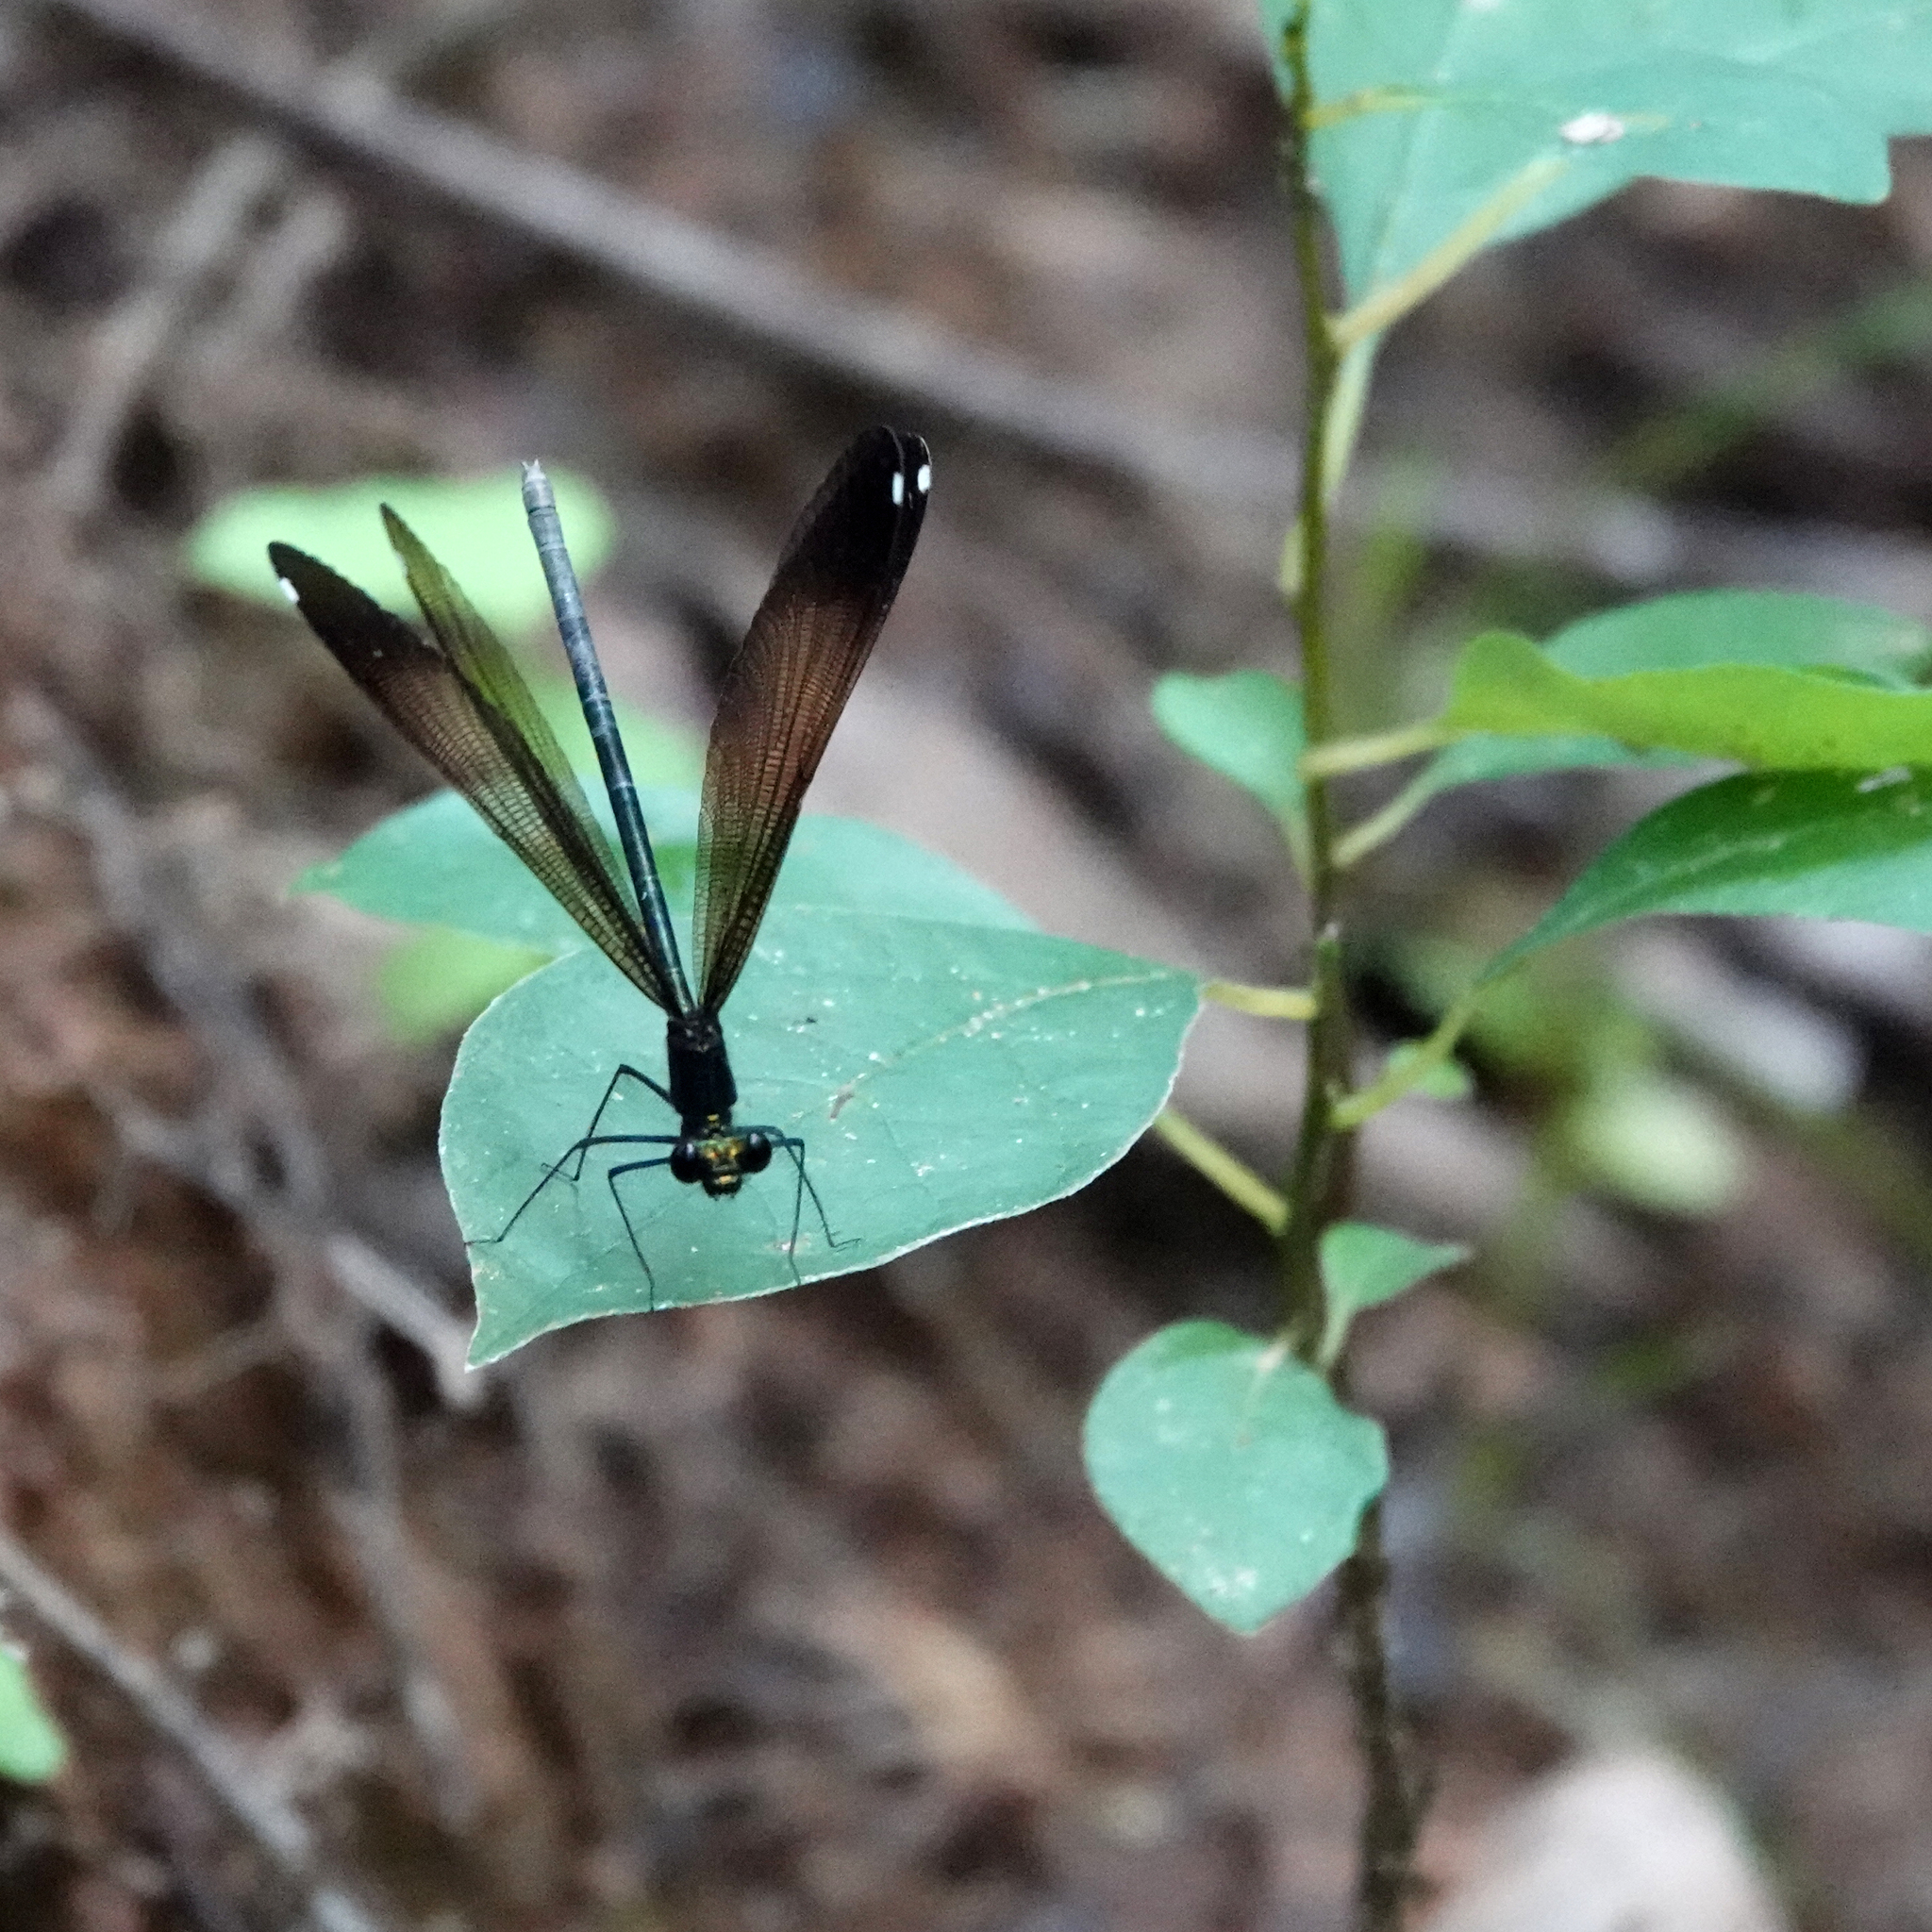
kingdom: Animalia
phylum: Arthropoda
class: Insecta
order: Odonata
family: Calopterygidae
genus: Calopteryx
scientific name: Calopteryx maculata
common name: Ebony jewelwing
